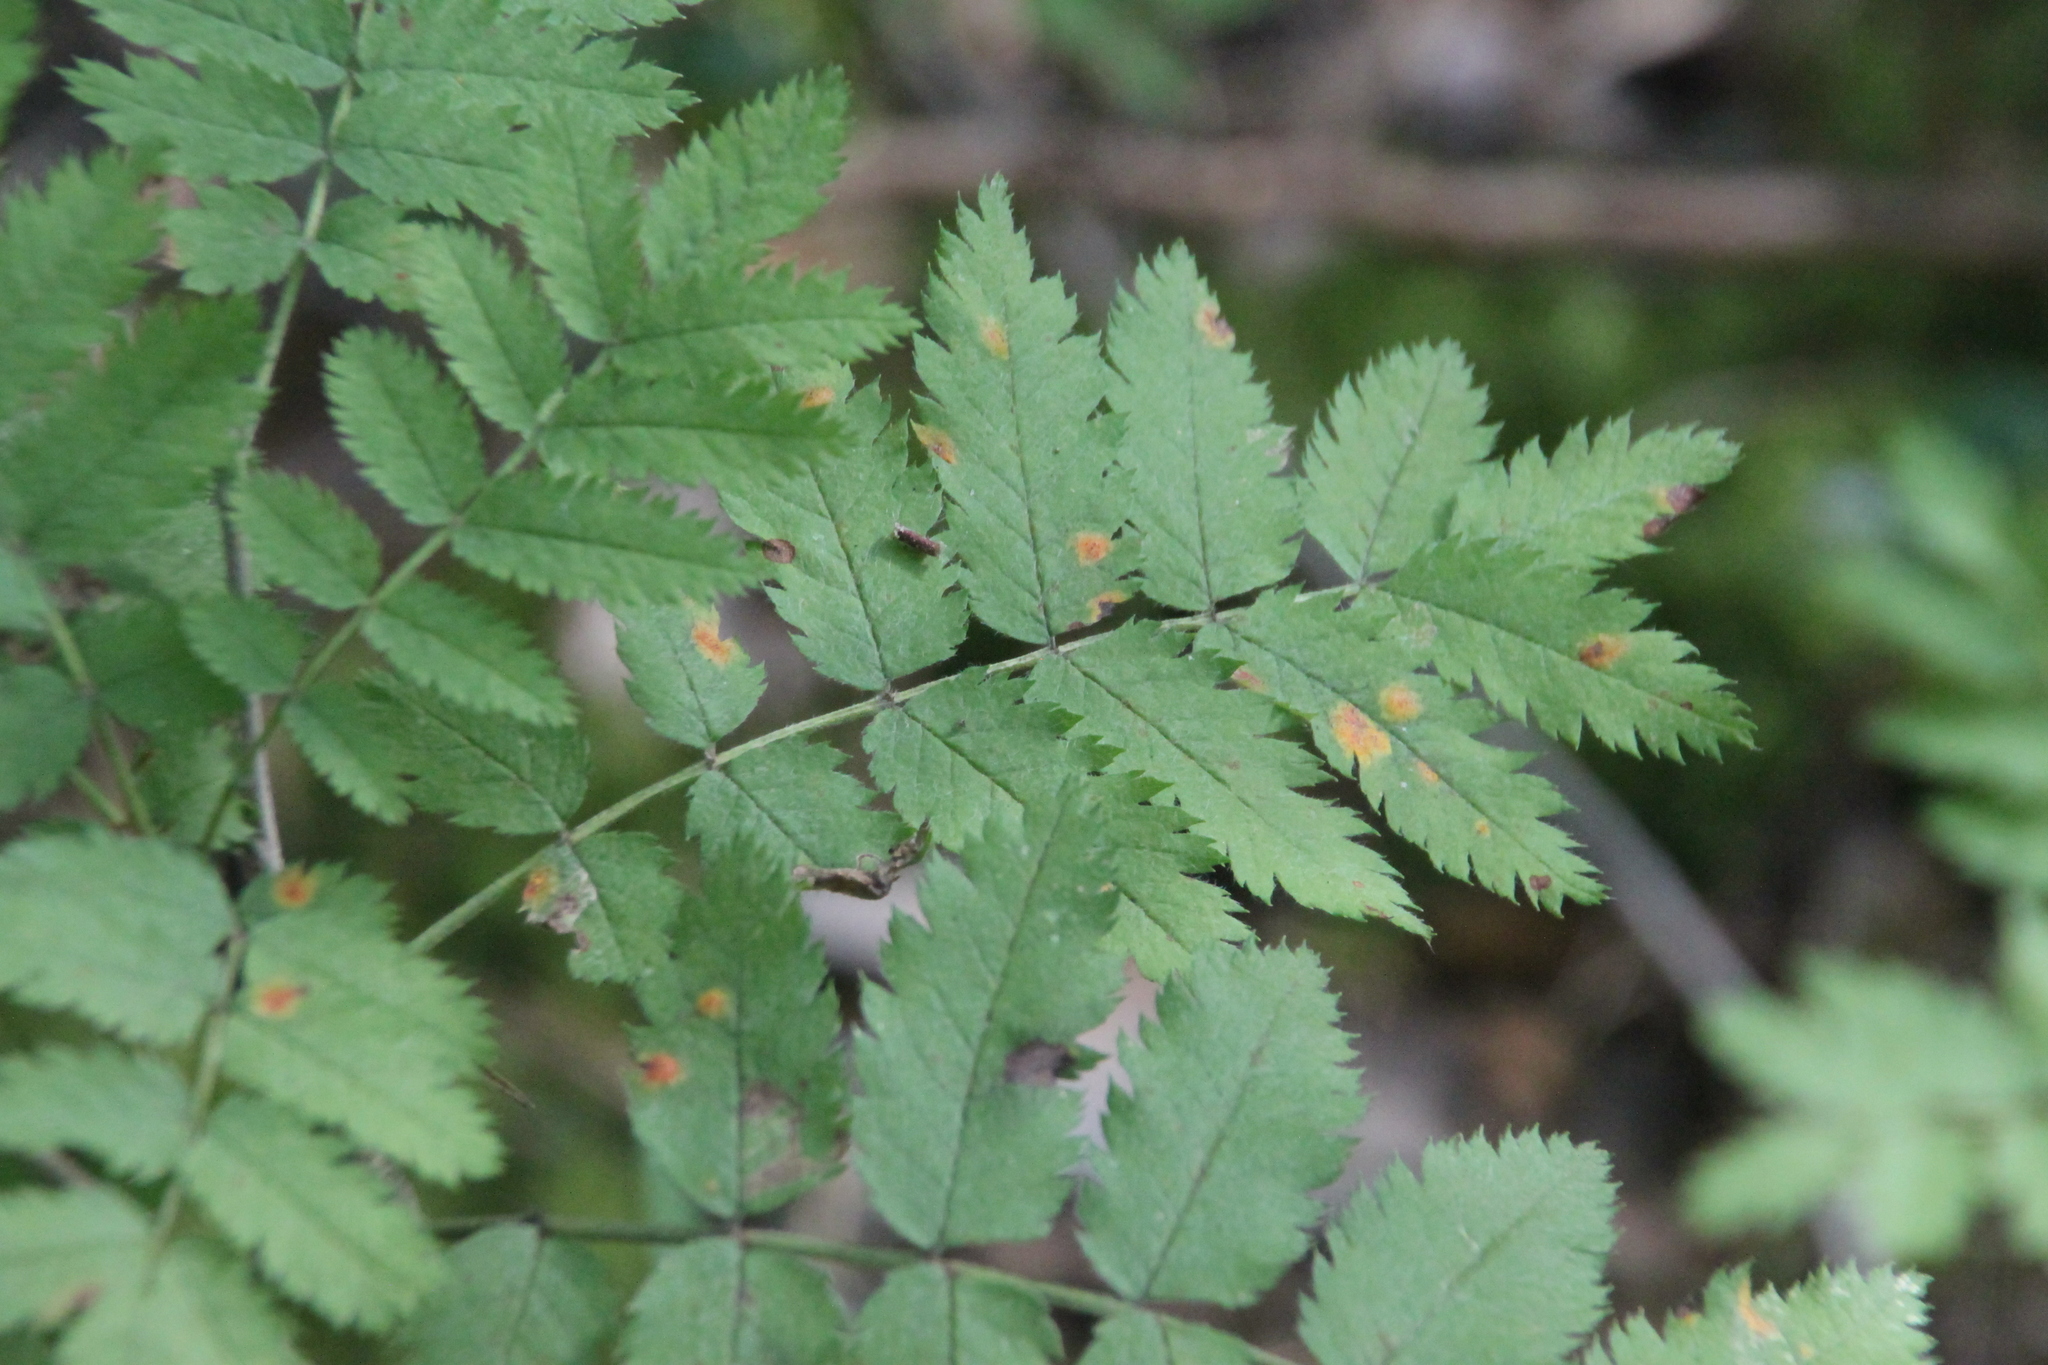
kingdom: Plantae
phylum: Tracheophyta
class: Magnoliopsida
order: Rosales
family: Rosaceae
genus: Sorbus
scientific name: Sorbus aucuparia
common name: Rowan
